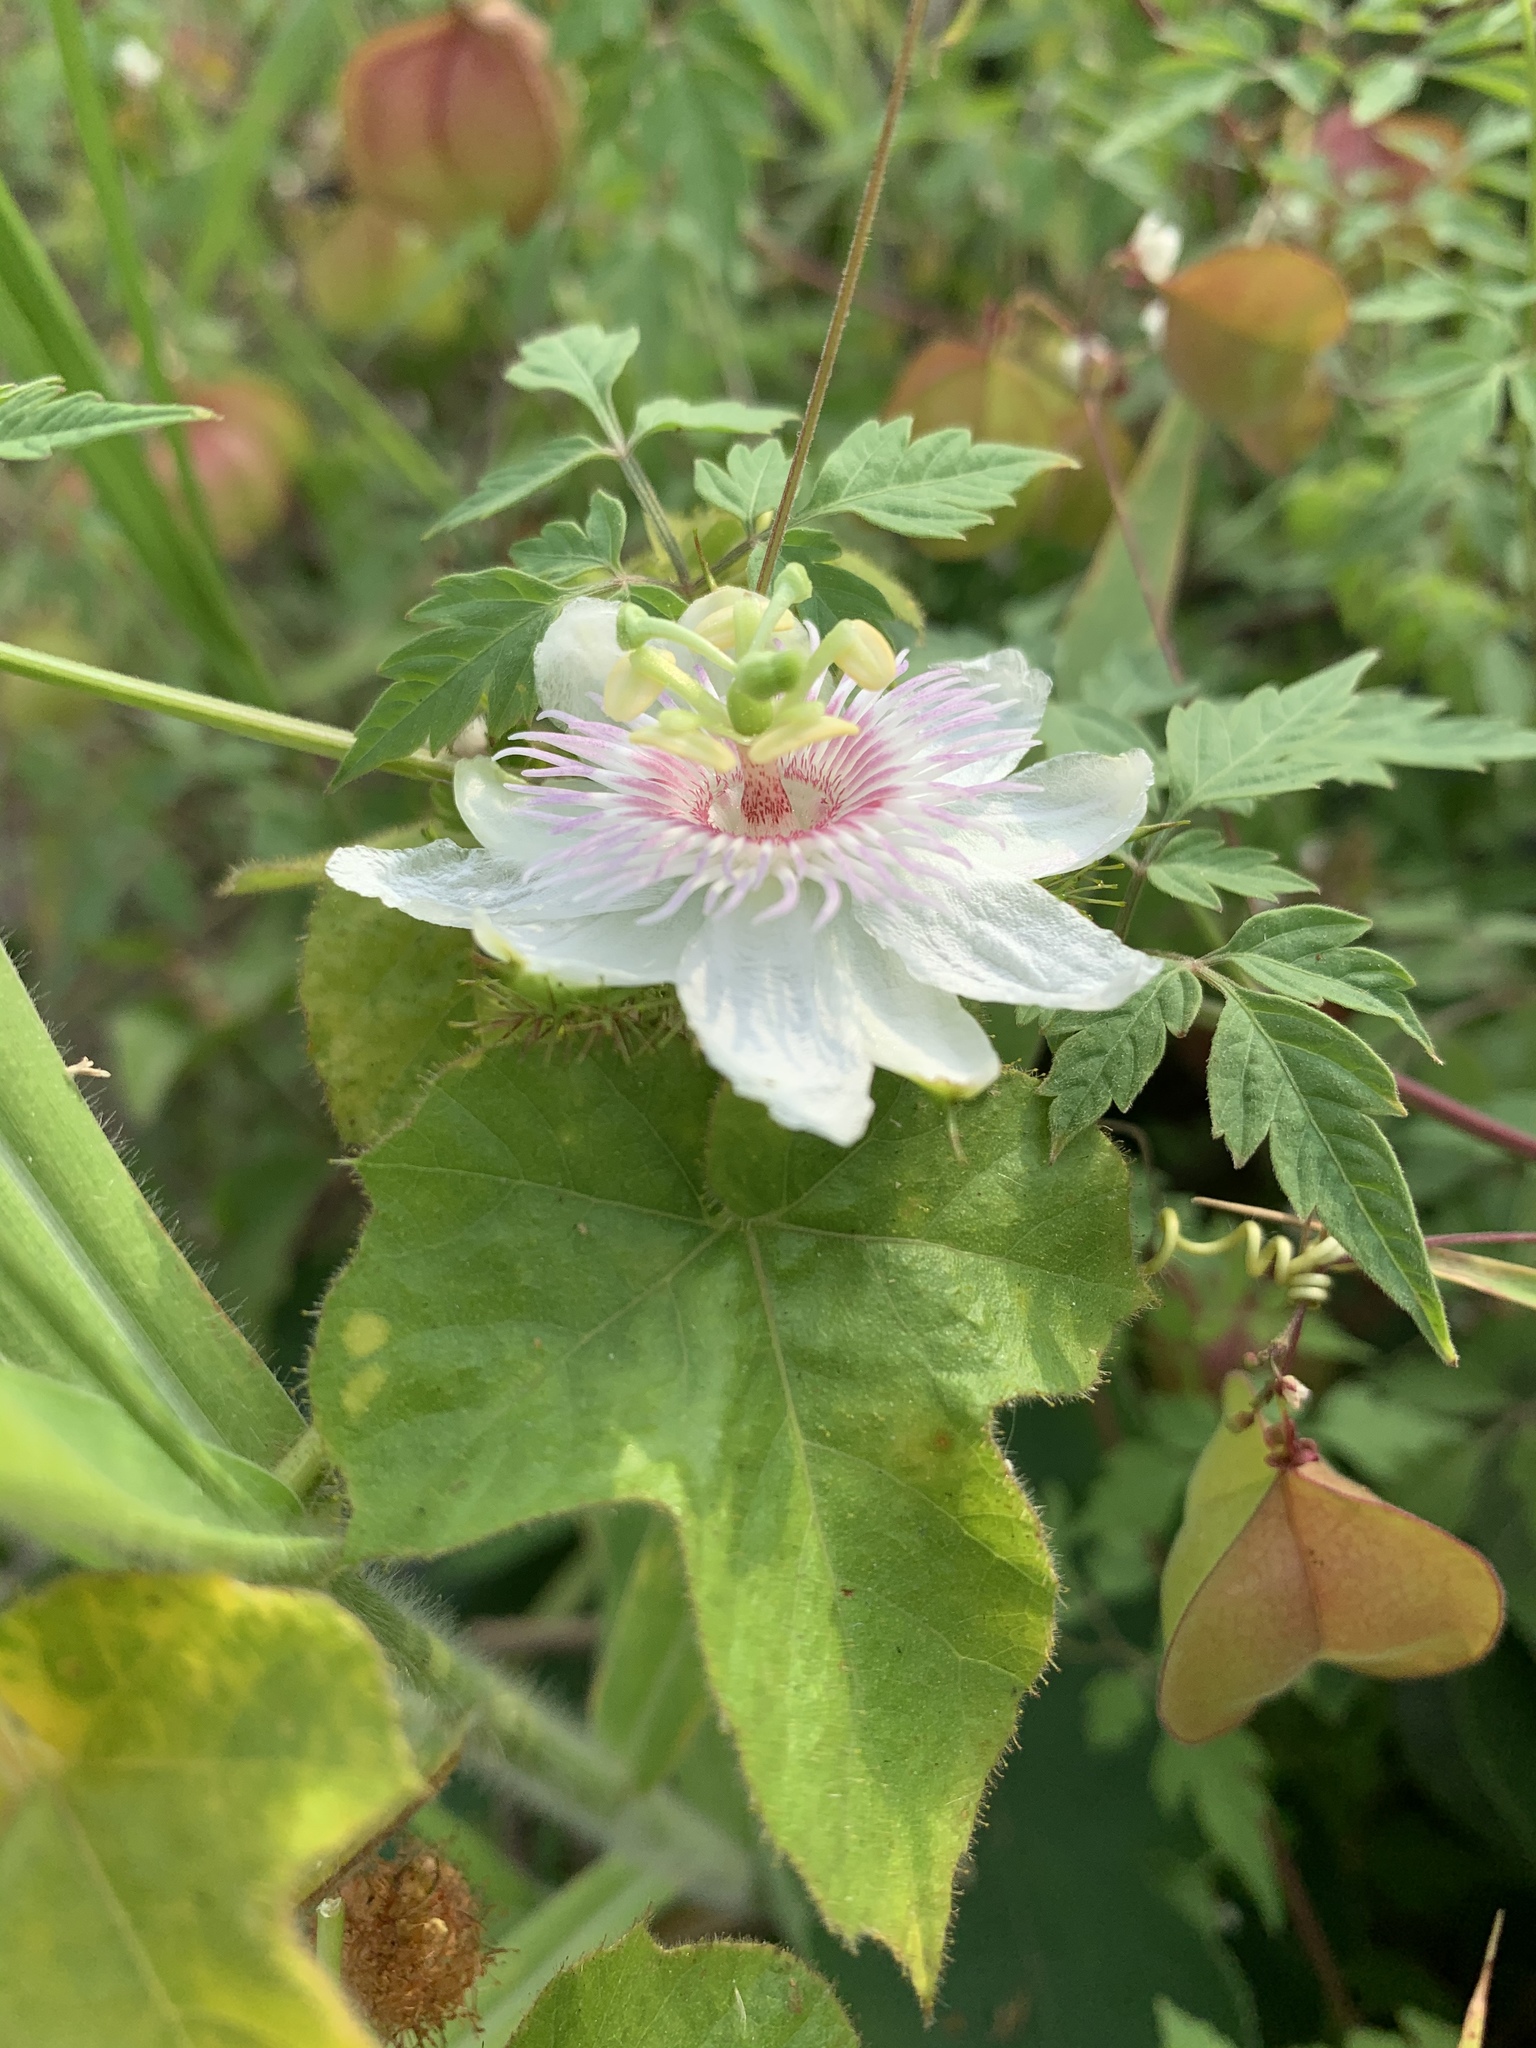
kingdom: Plantae
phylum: Tracheophyta
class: Magnoliopsida
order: Malpighiales
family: Passifloraceae
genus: Passiflora
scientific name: Passiflora vesicaria
